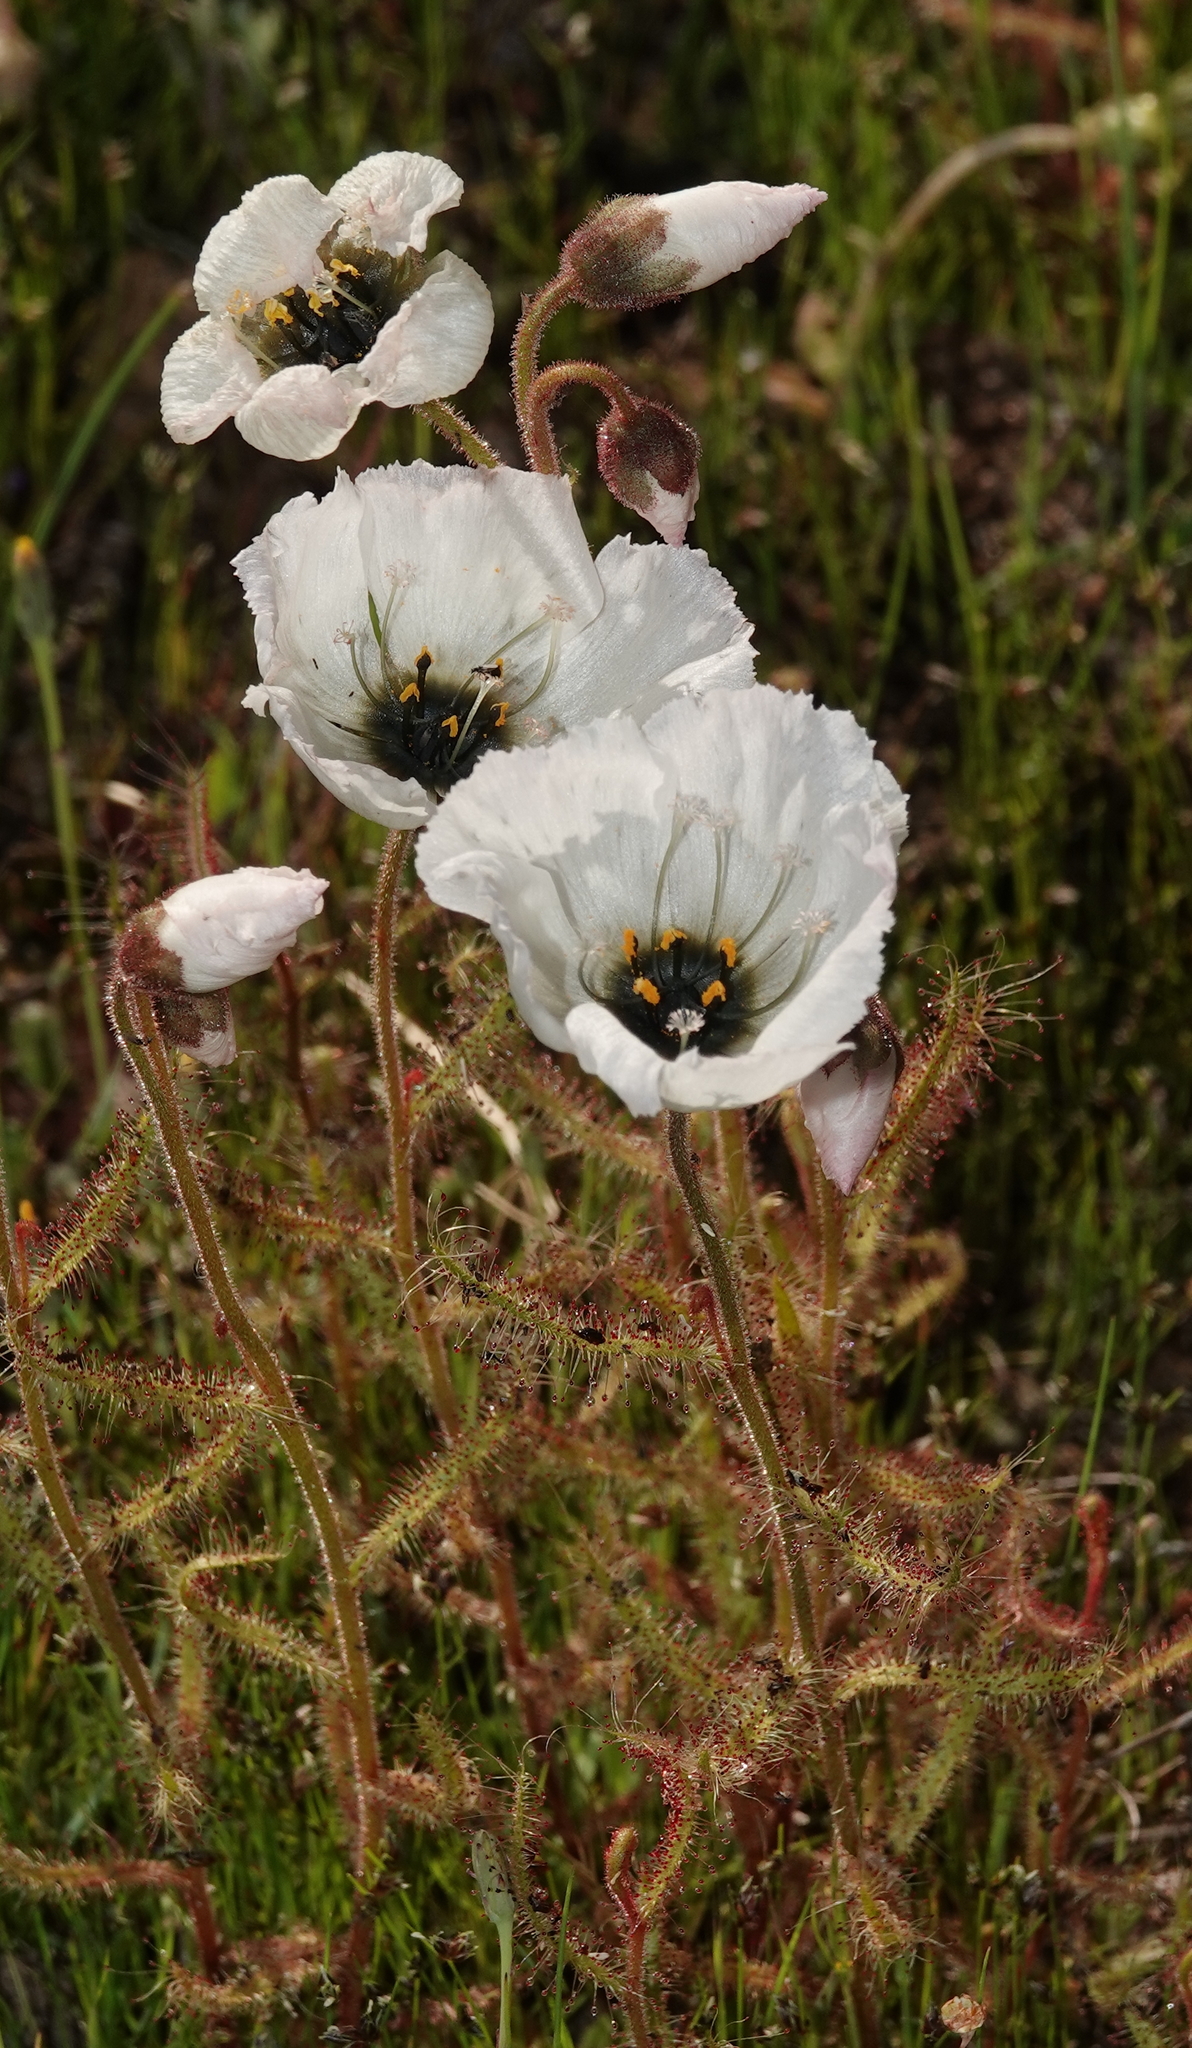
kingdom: Plantae
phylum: Tracheophyta
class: Magnoliopsida
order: Caryophyllales
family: Droseraceae
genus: Drosera
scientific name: Drosera cistiflora
